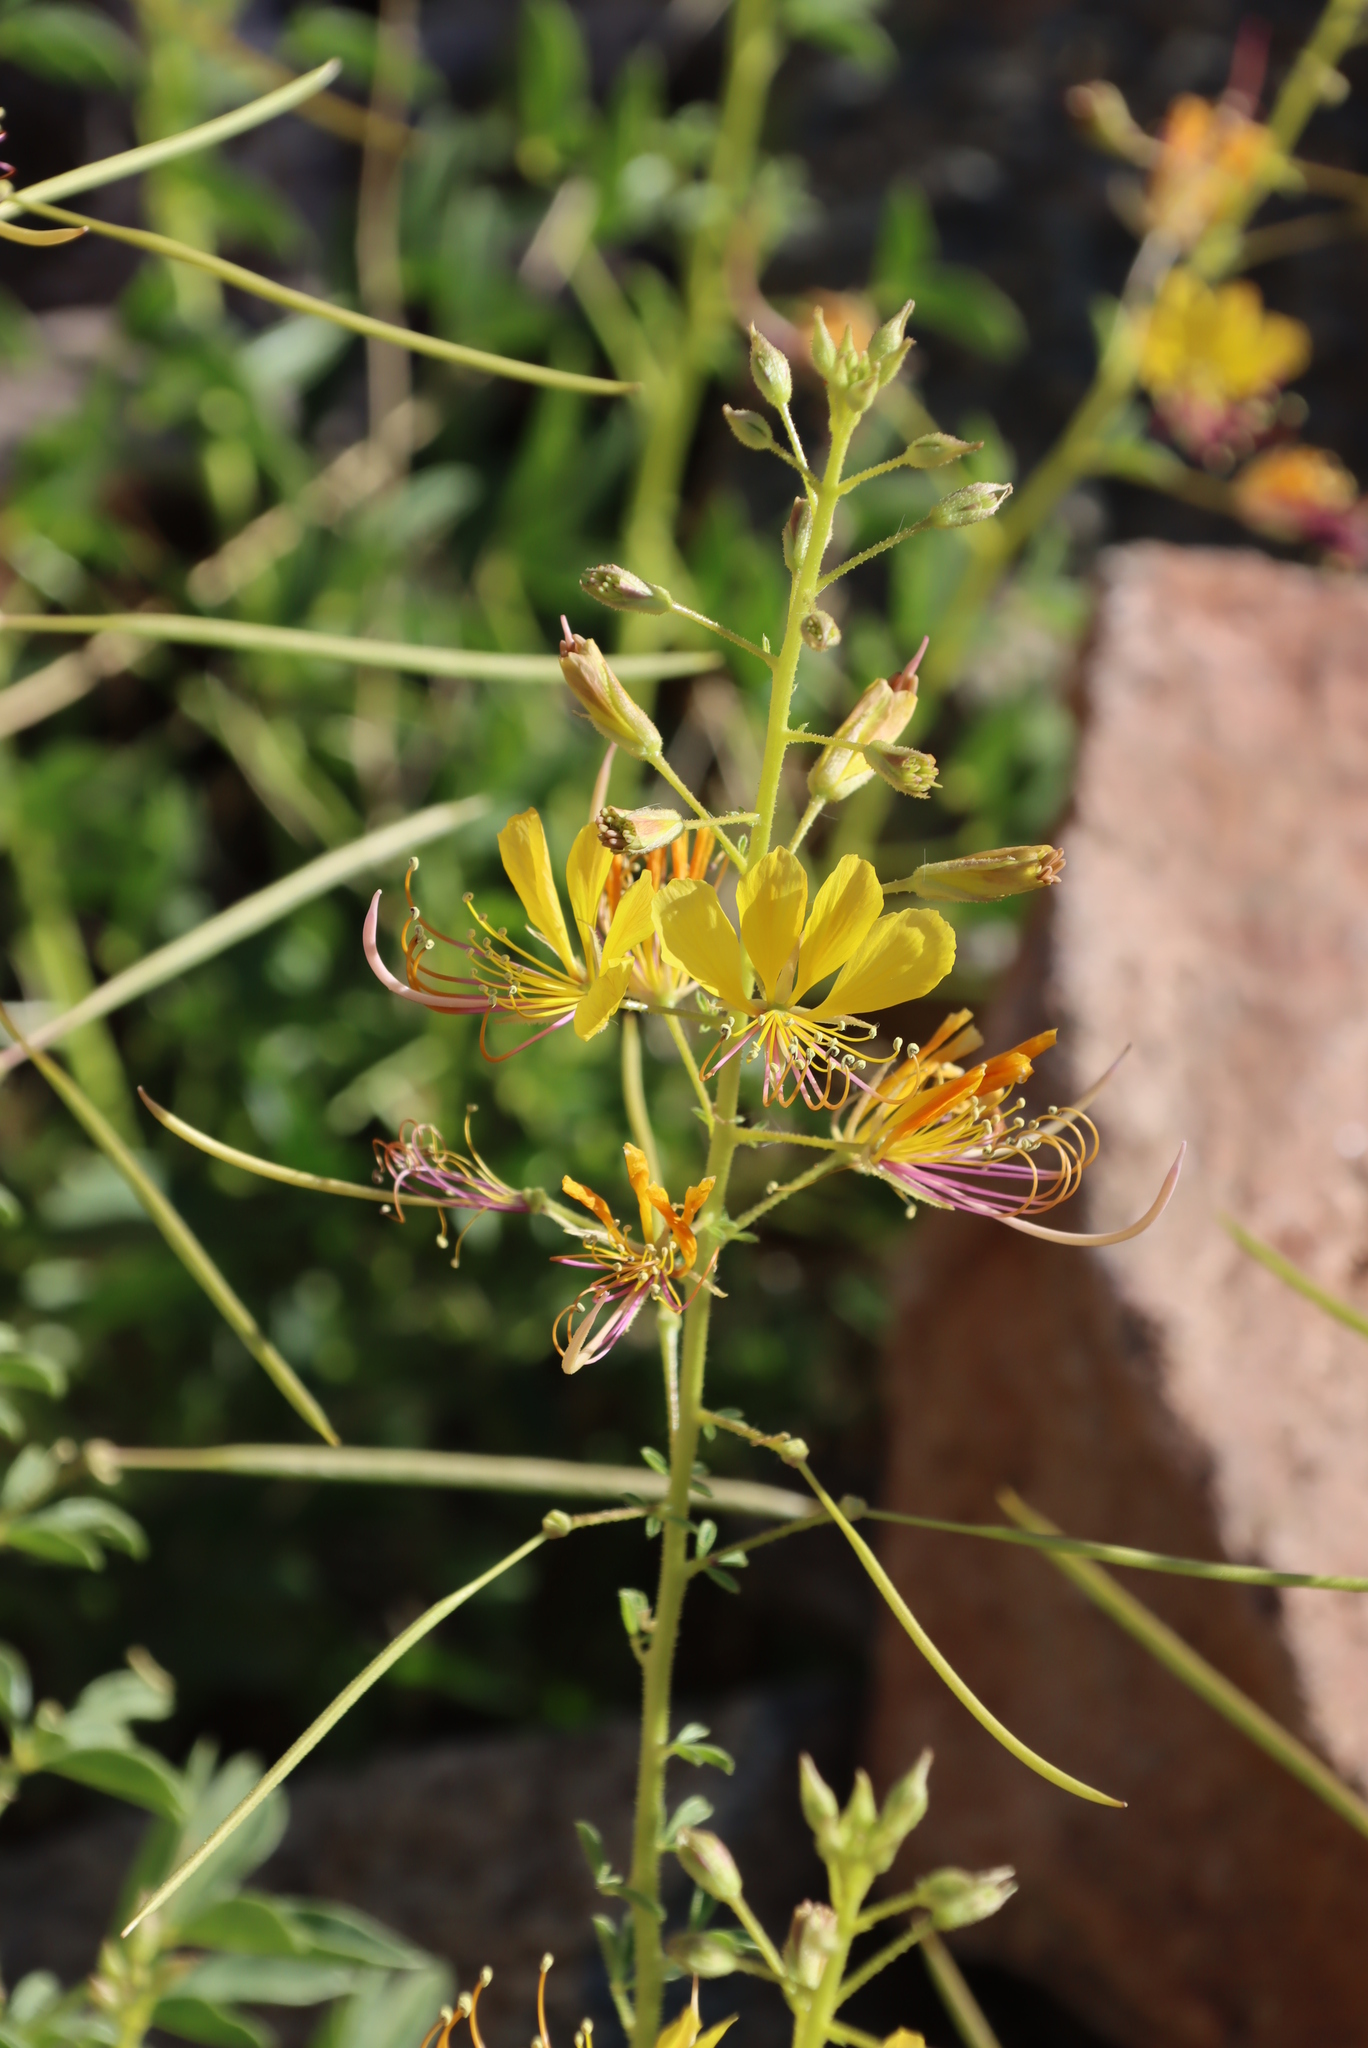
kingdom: Plantae
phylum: Tracheophyta
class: Magnoliopsida
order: Brassicales
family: Cleomaceae
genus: Cleome
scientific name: Cleome foliosa
